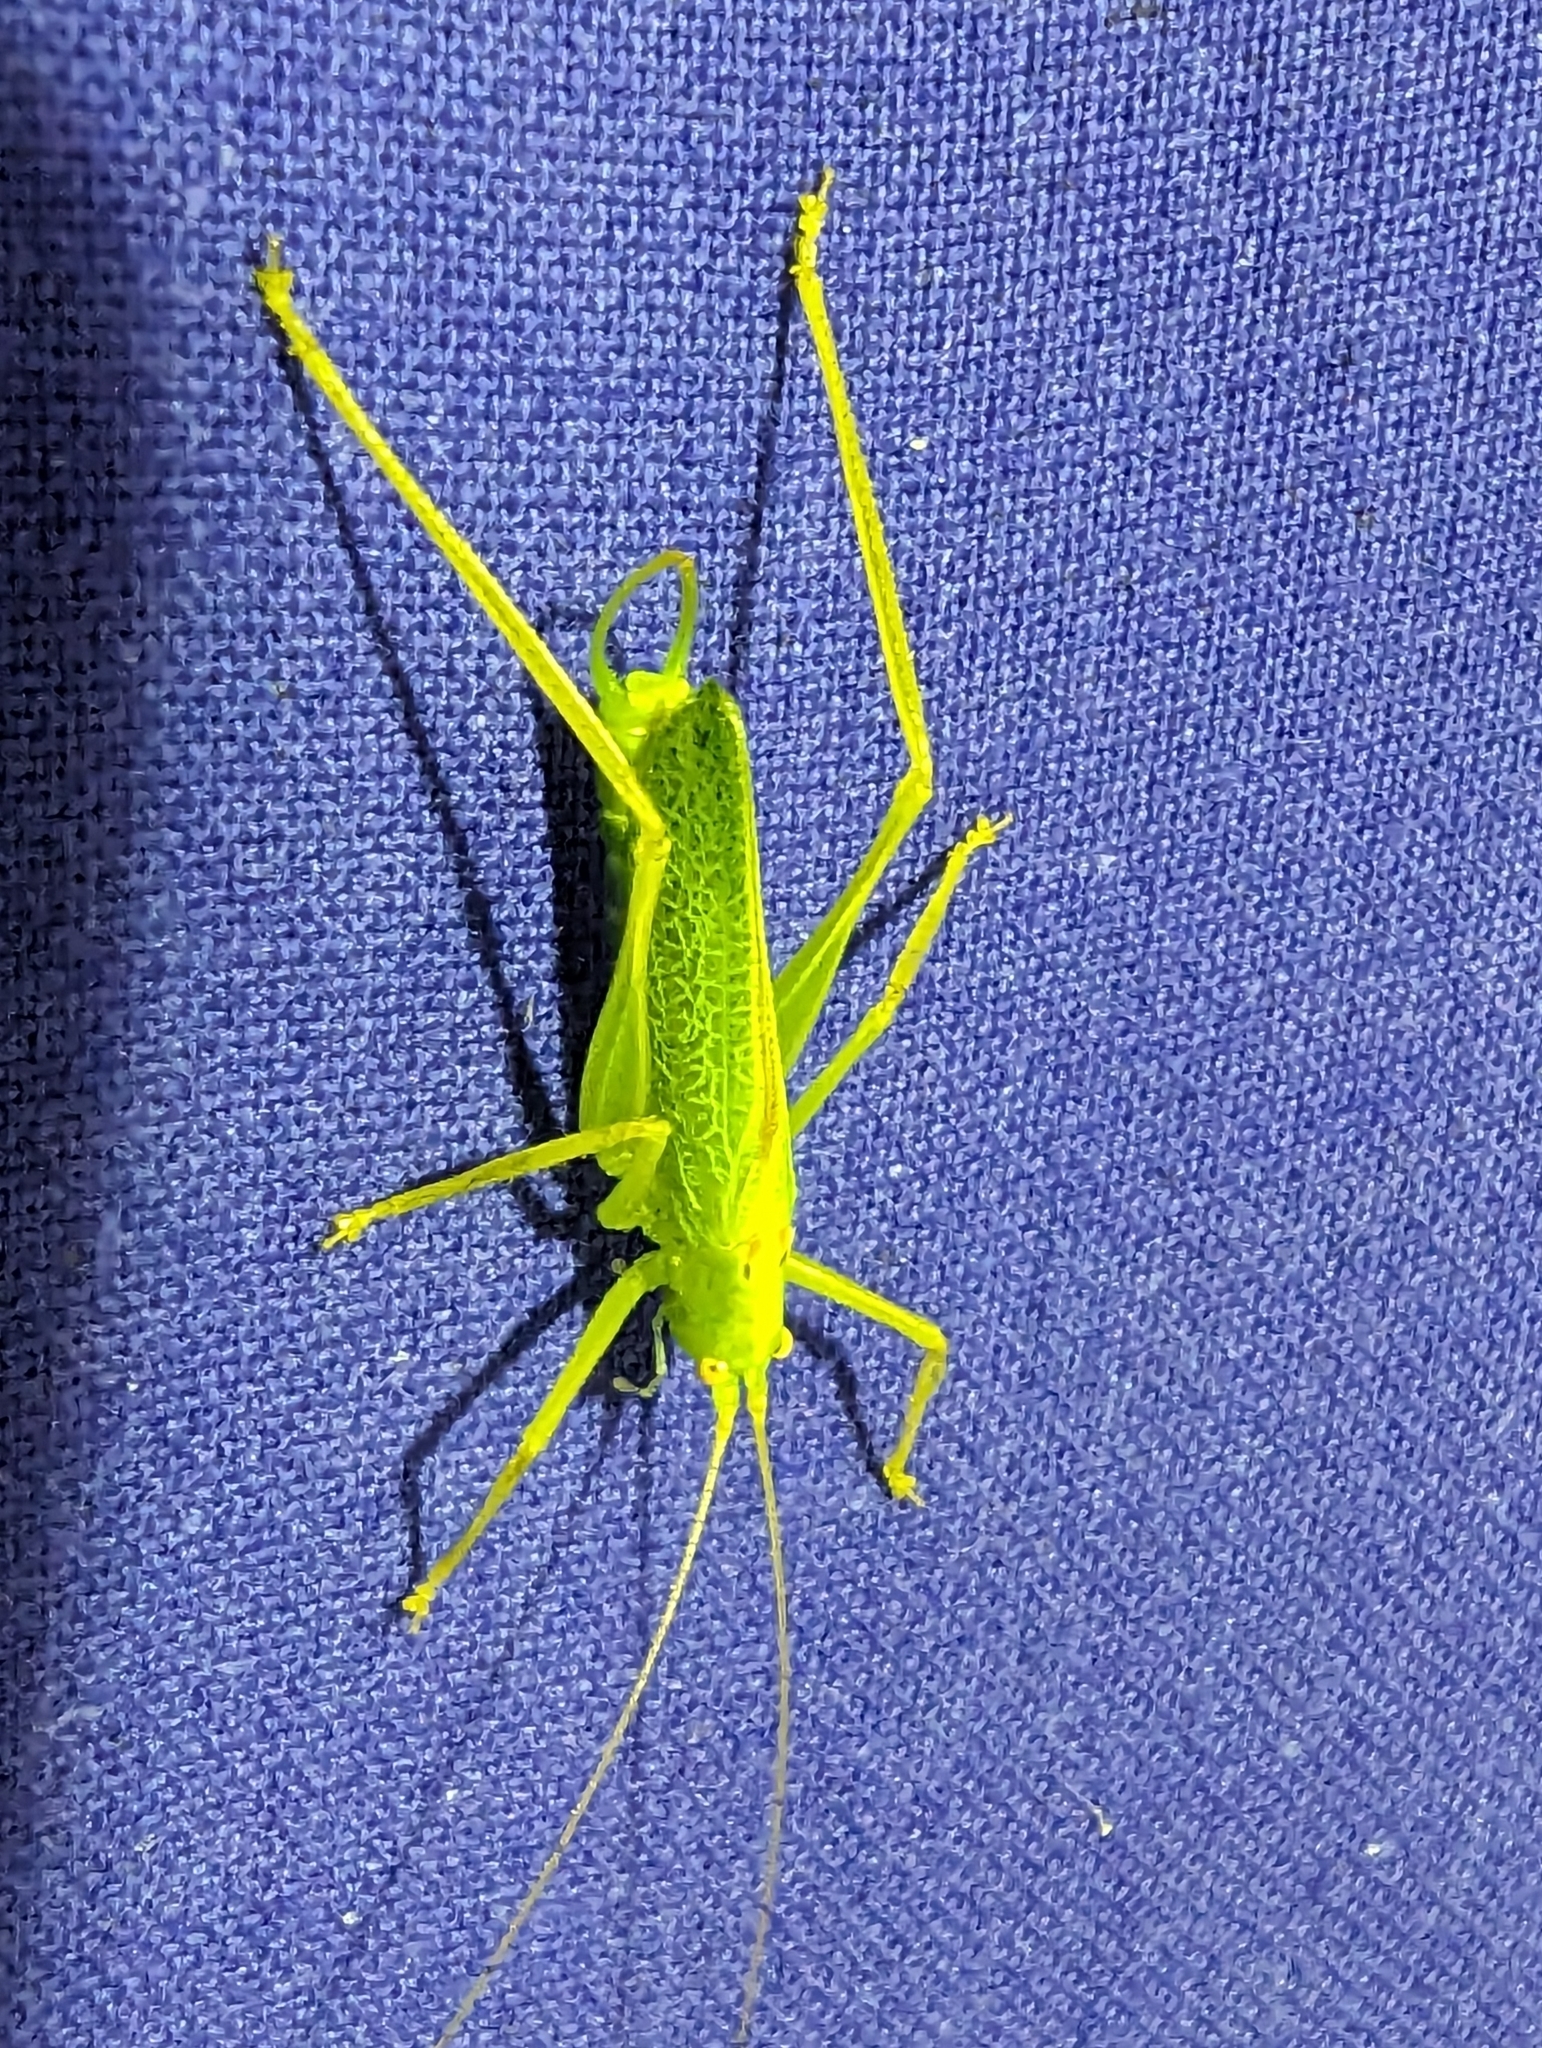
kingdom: Animalia
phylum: Arthropoda
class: Insecta
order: Orthoptera
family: Tettigoniidae
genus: Meconema
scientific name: Meconema thalassinum
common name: Oak bush-cricket
